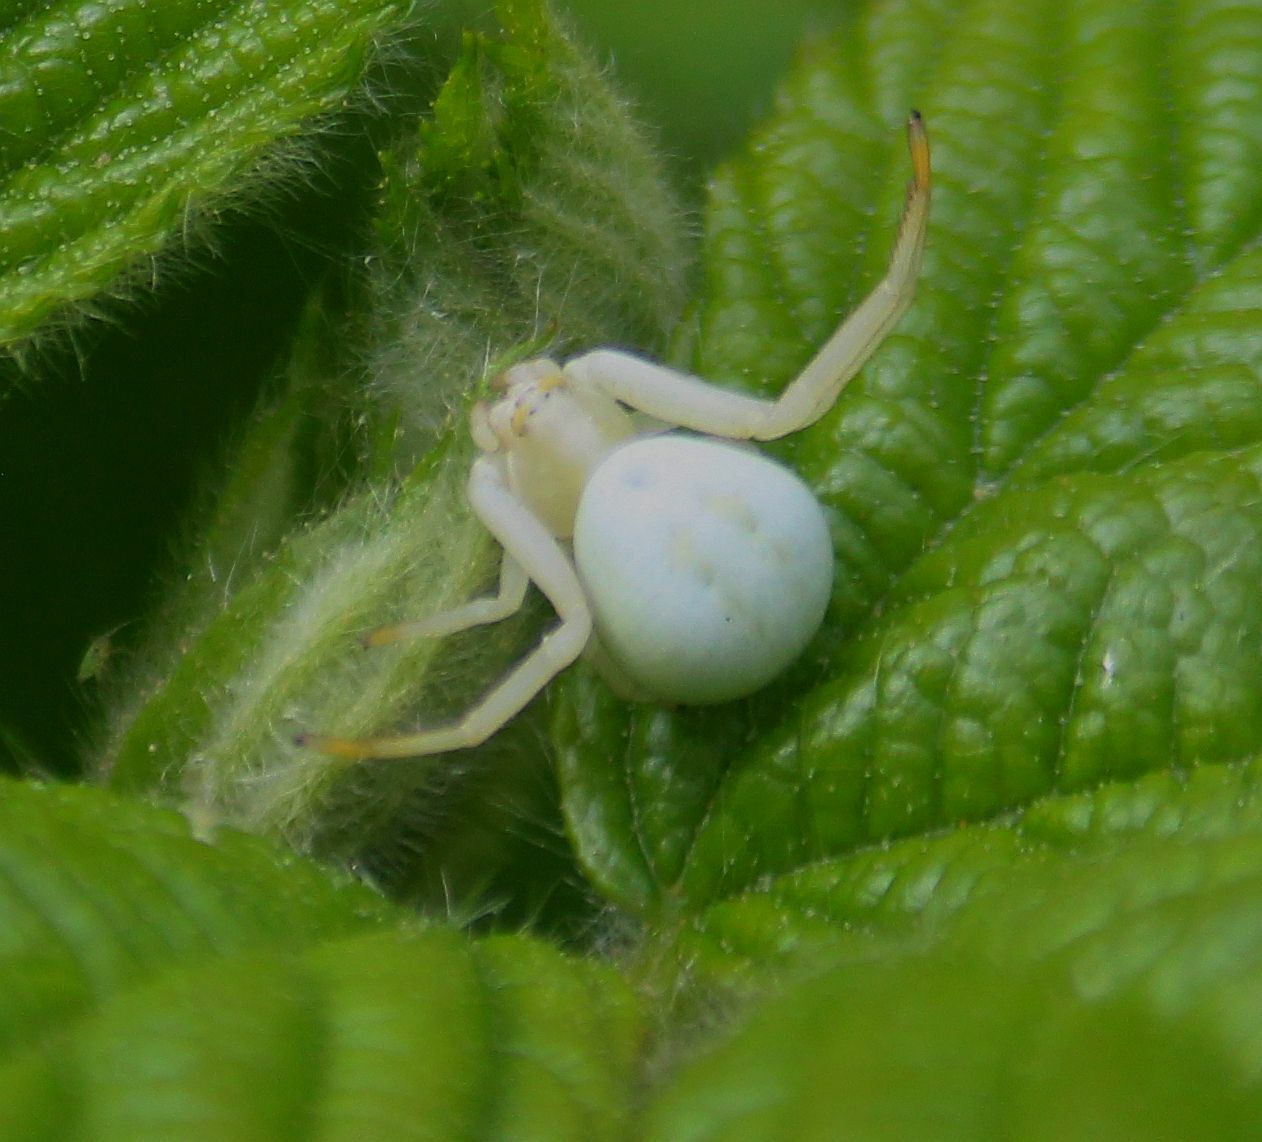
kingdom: Animalia
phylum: Arthropoda
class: Arachnida
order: Araneae
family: Thomisidae
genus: Misumena
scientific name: Misumena vatia
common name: Goldenrod crab spider
